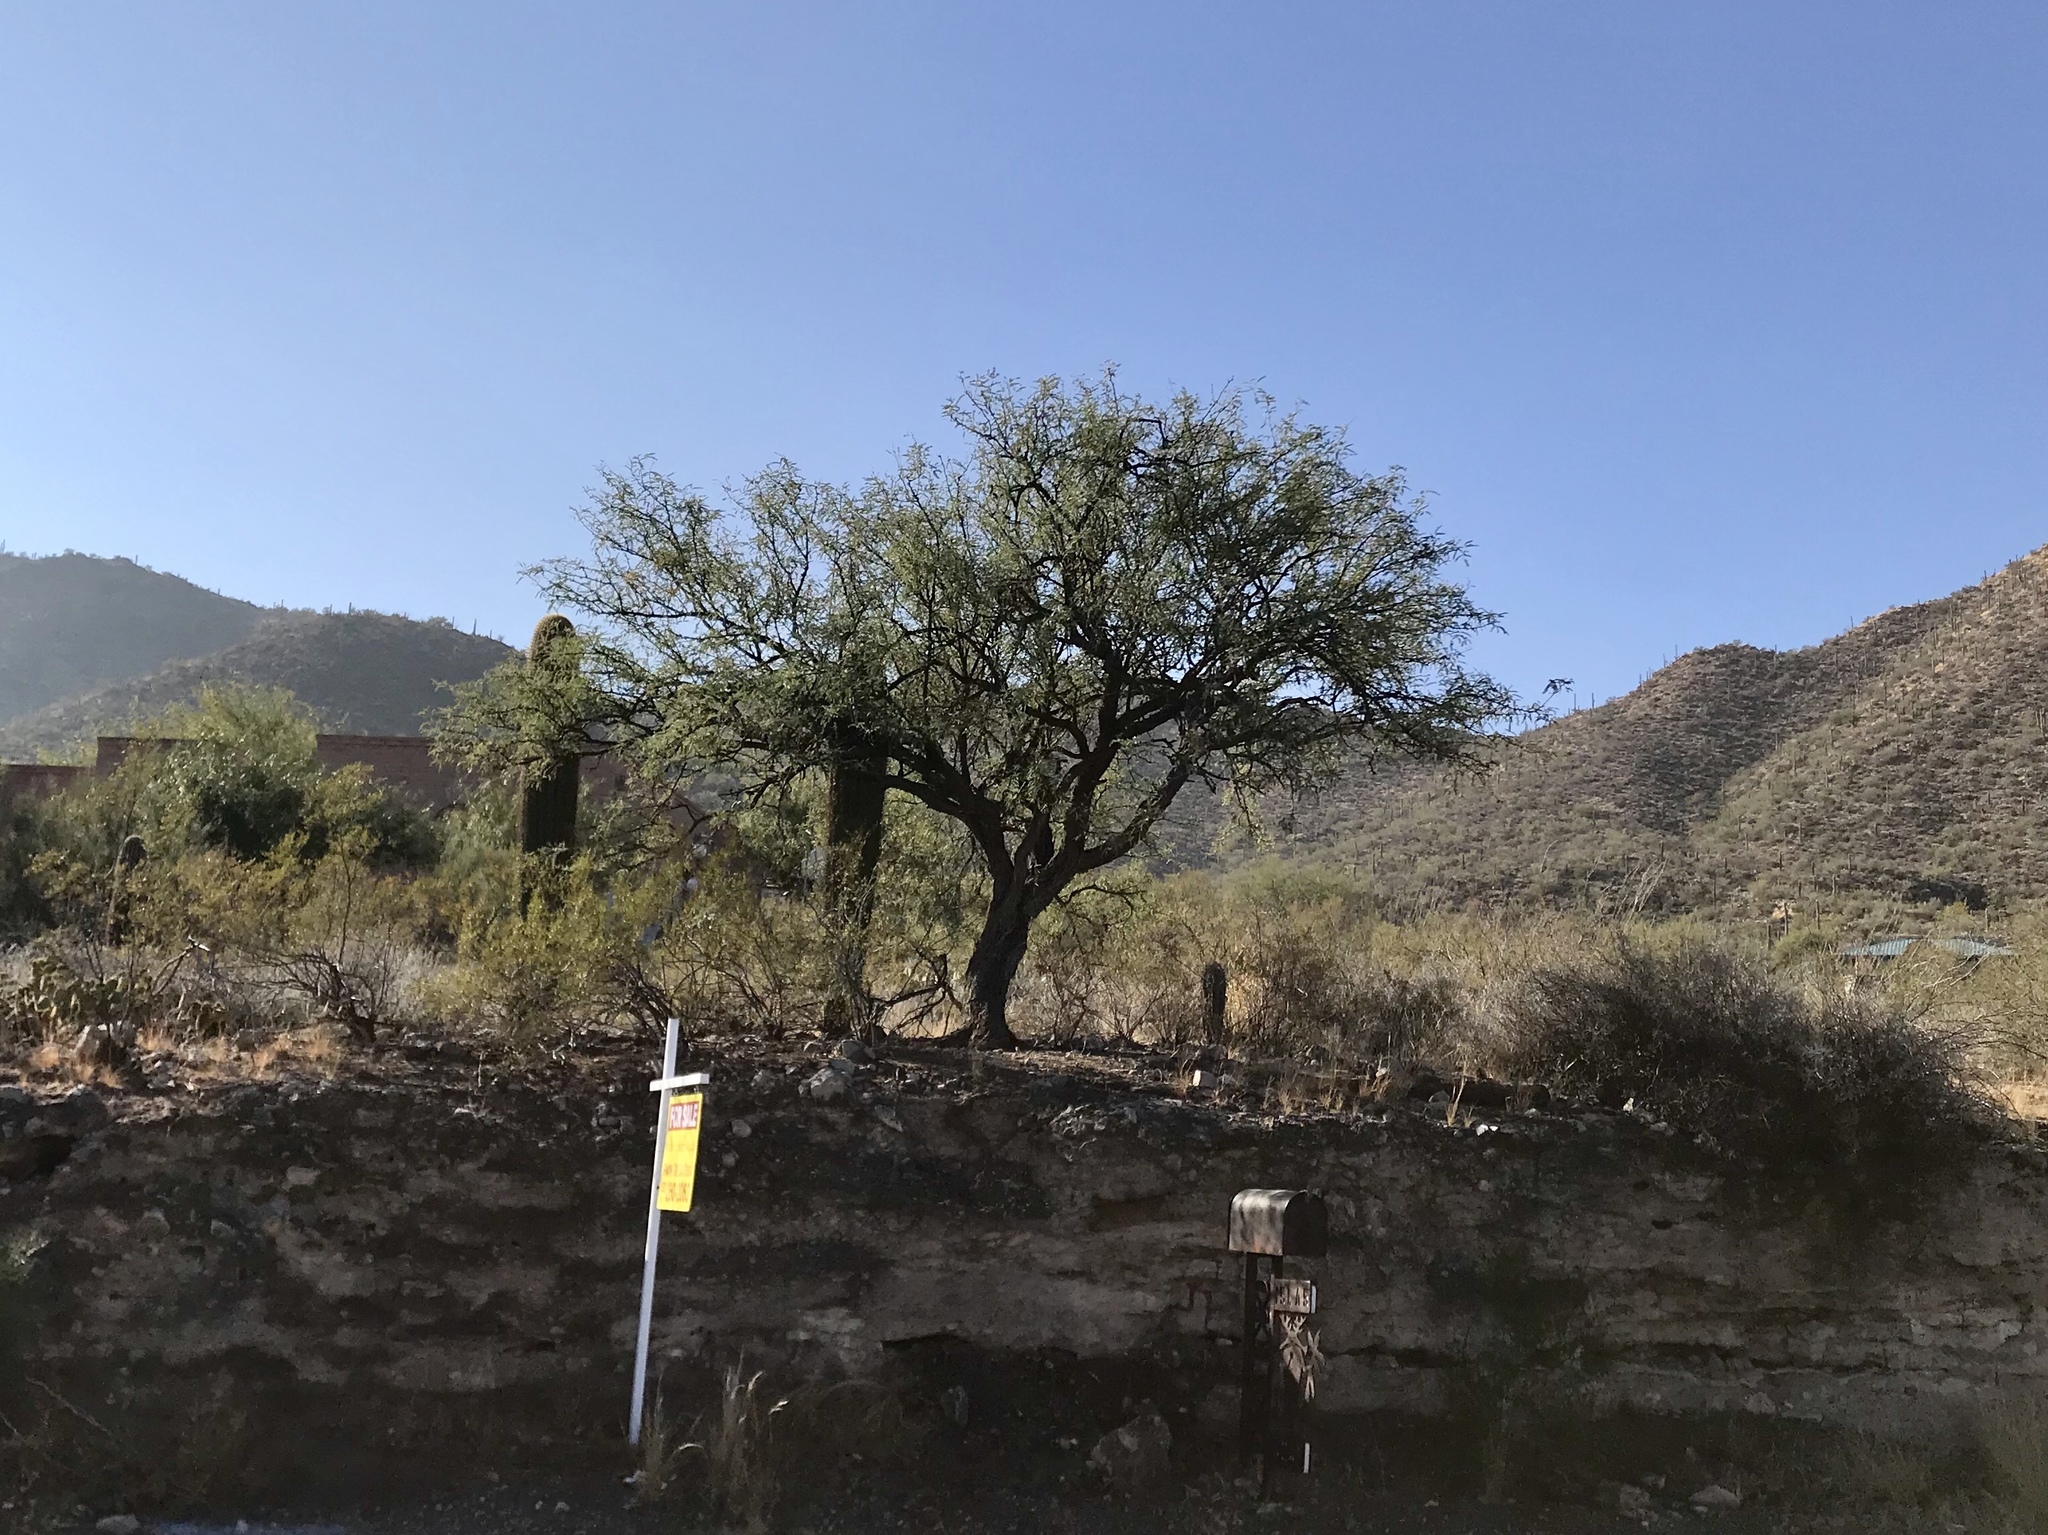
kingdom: Plantae
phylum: Tracheophyta
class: Magnoliopsida
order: Fabales
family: Fabaceae
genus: Prosopis
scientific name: Prosopis velutina
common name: Velvet mesquite
